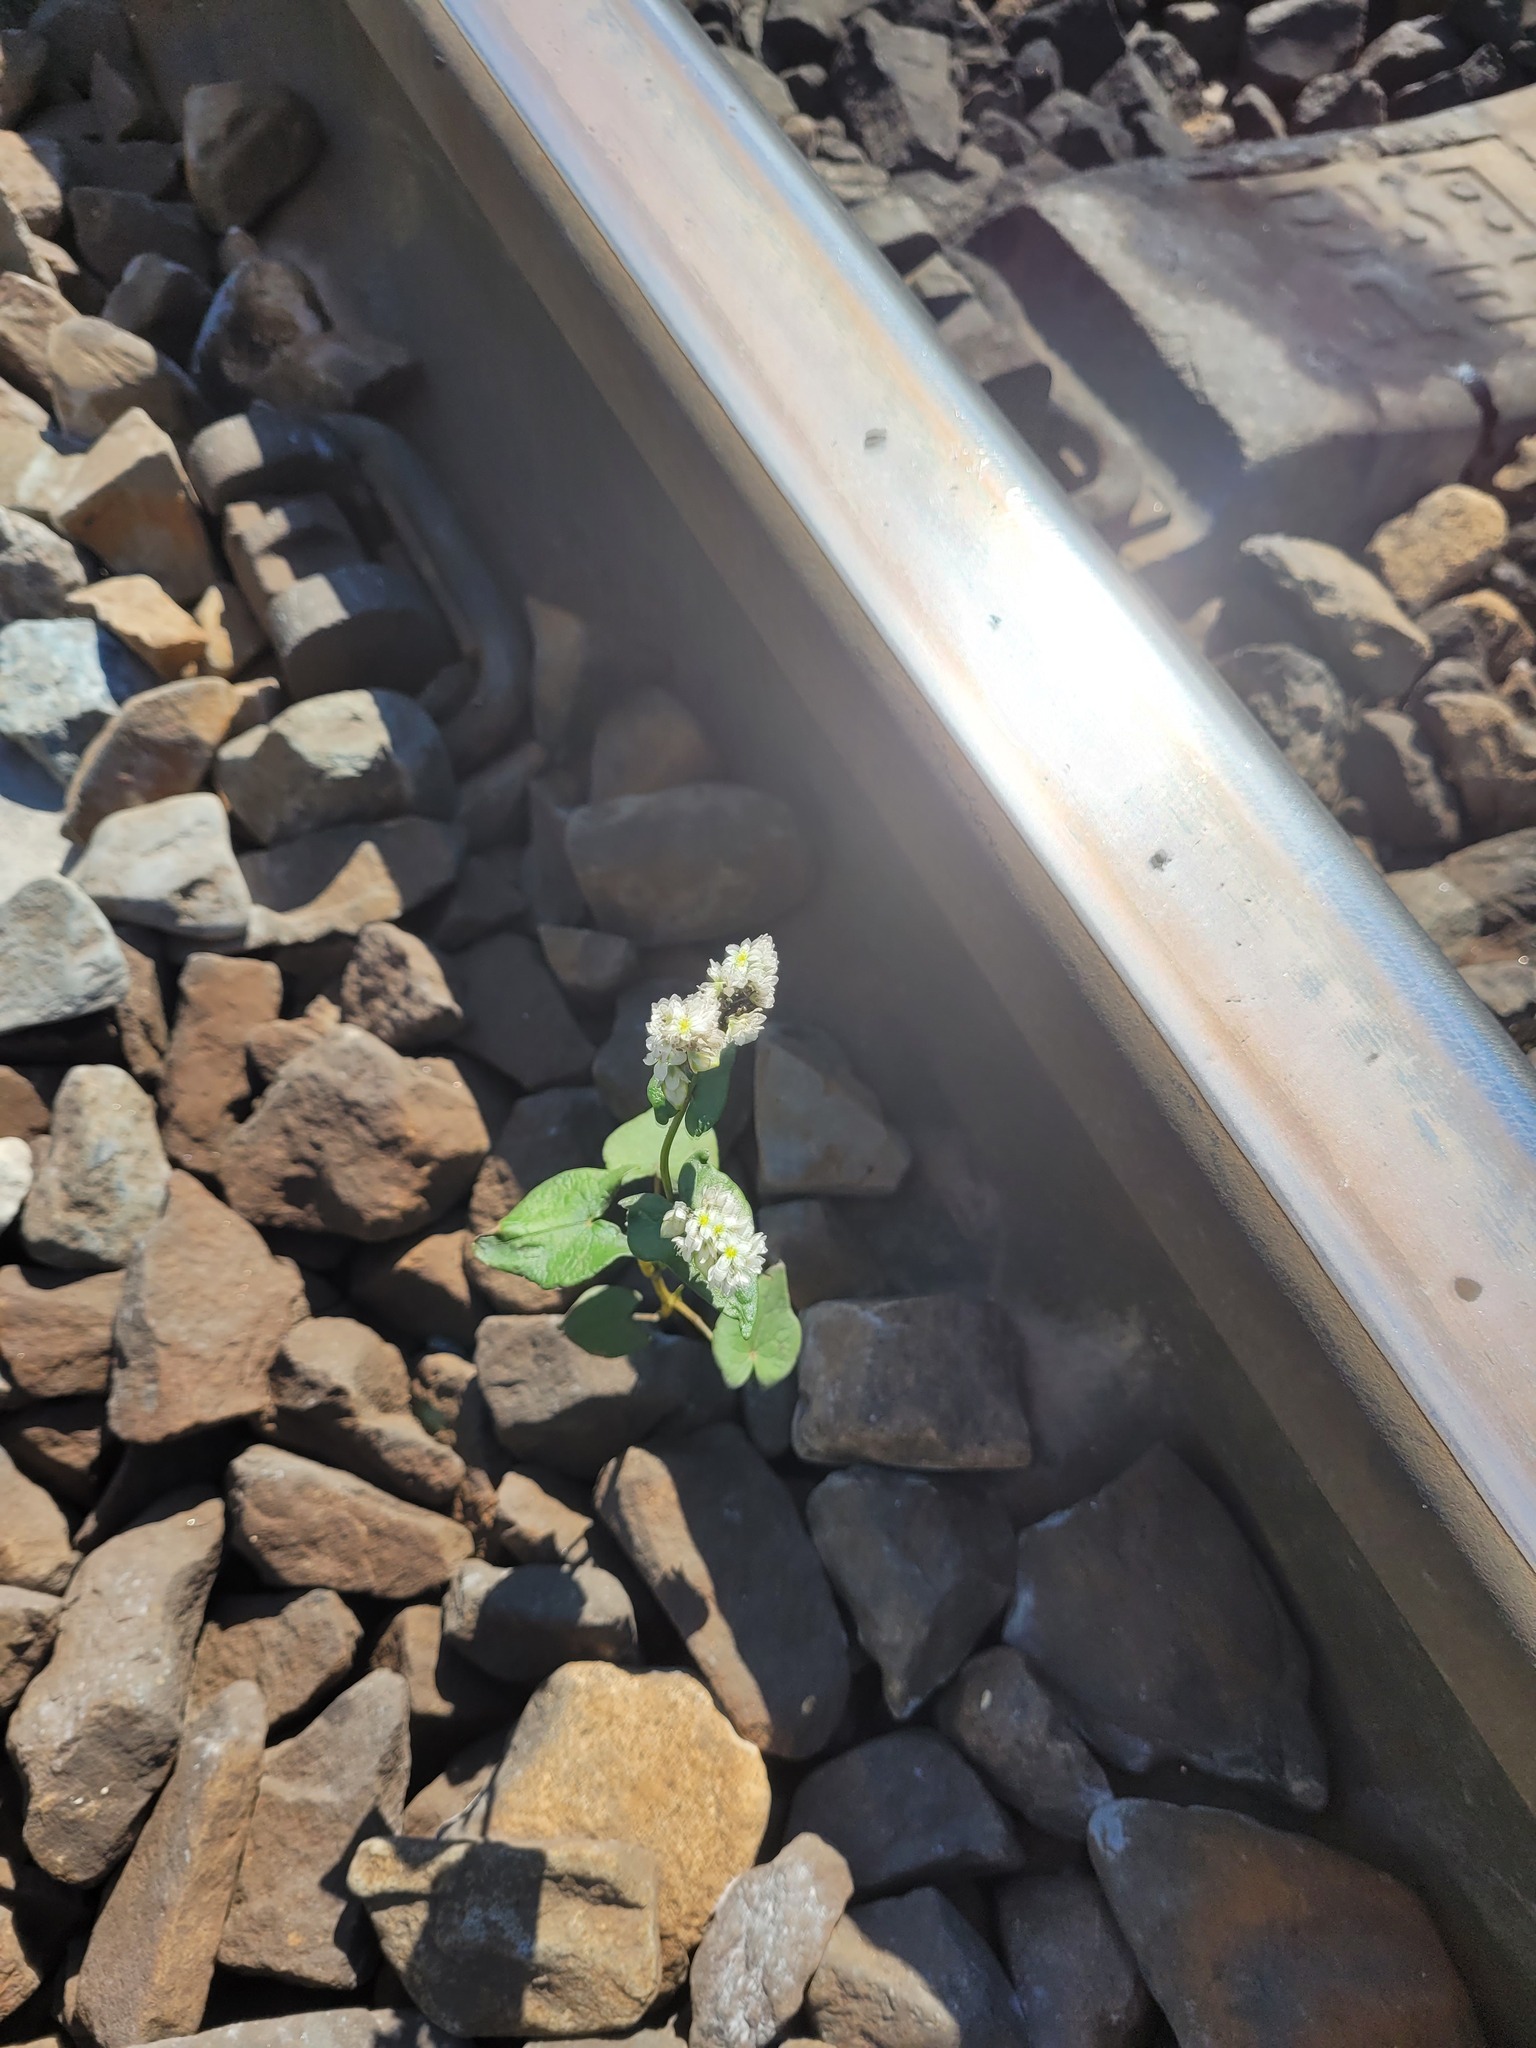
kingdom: Plantae
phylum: Tracheophyta
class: Magnoliopsida
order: Caryophyllales
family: Polygonaceae
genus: Fagopyrum
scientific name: Fagopyrum esculentum
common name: Buckwheat
